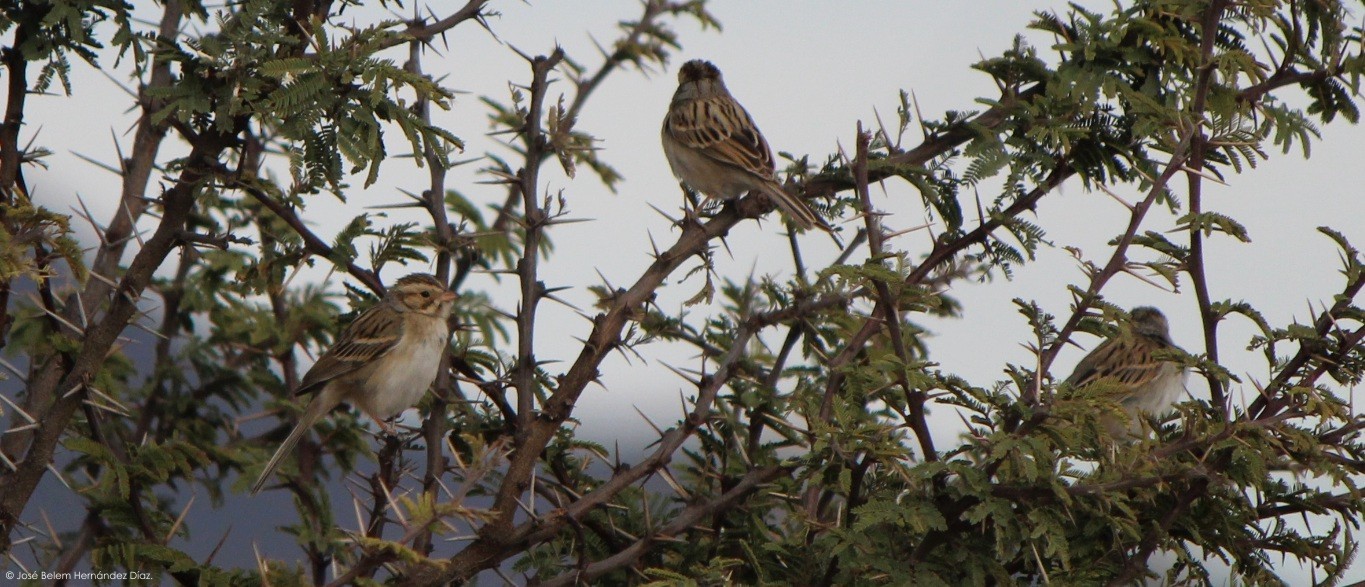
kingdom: Animalia
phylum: Chordata
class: Aves
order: Passeriformes
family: Passerellidae
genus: Spizella
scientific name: Spizella pallida
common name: Clay-colored sparrow
